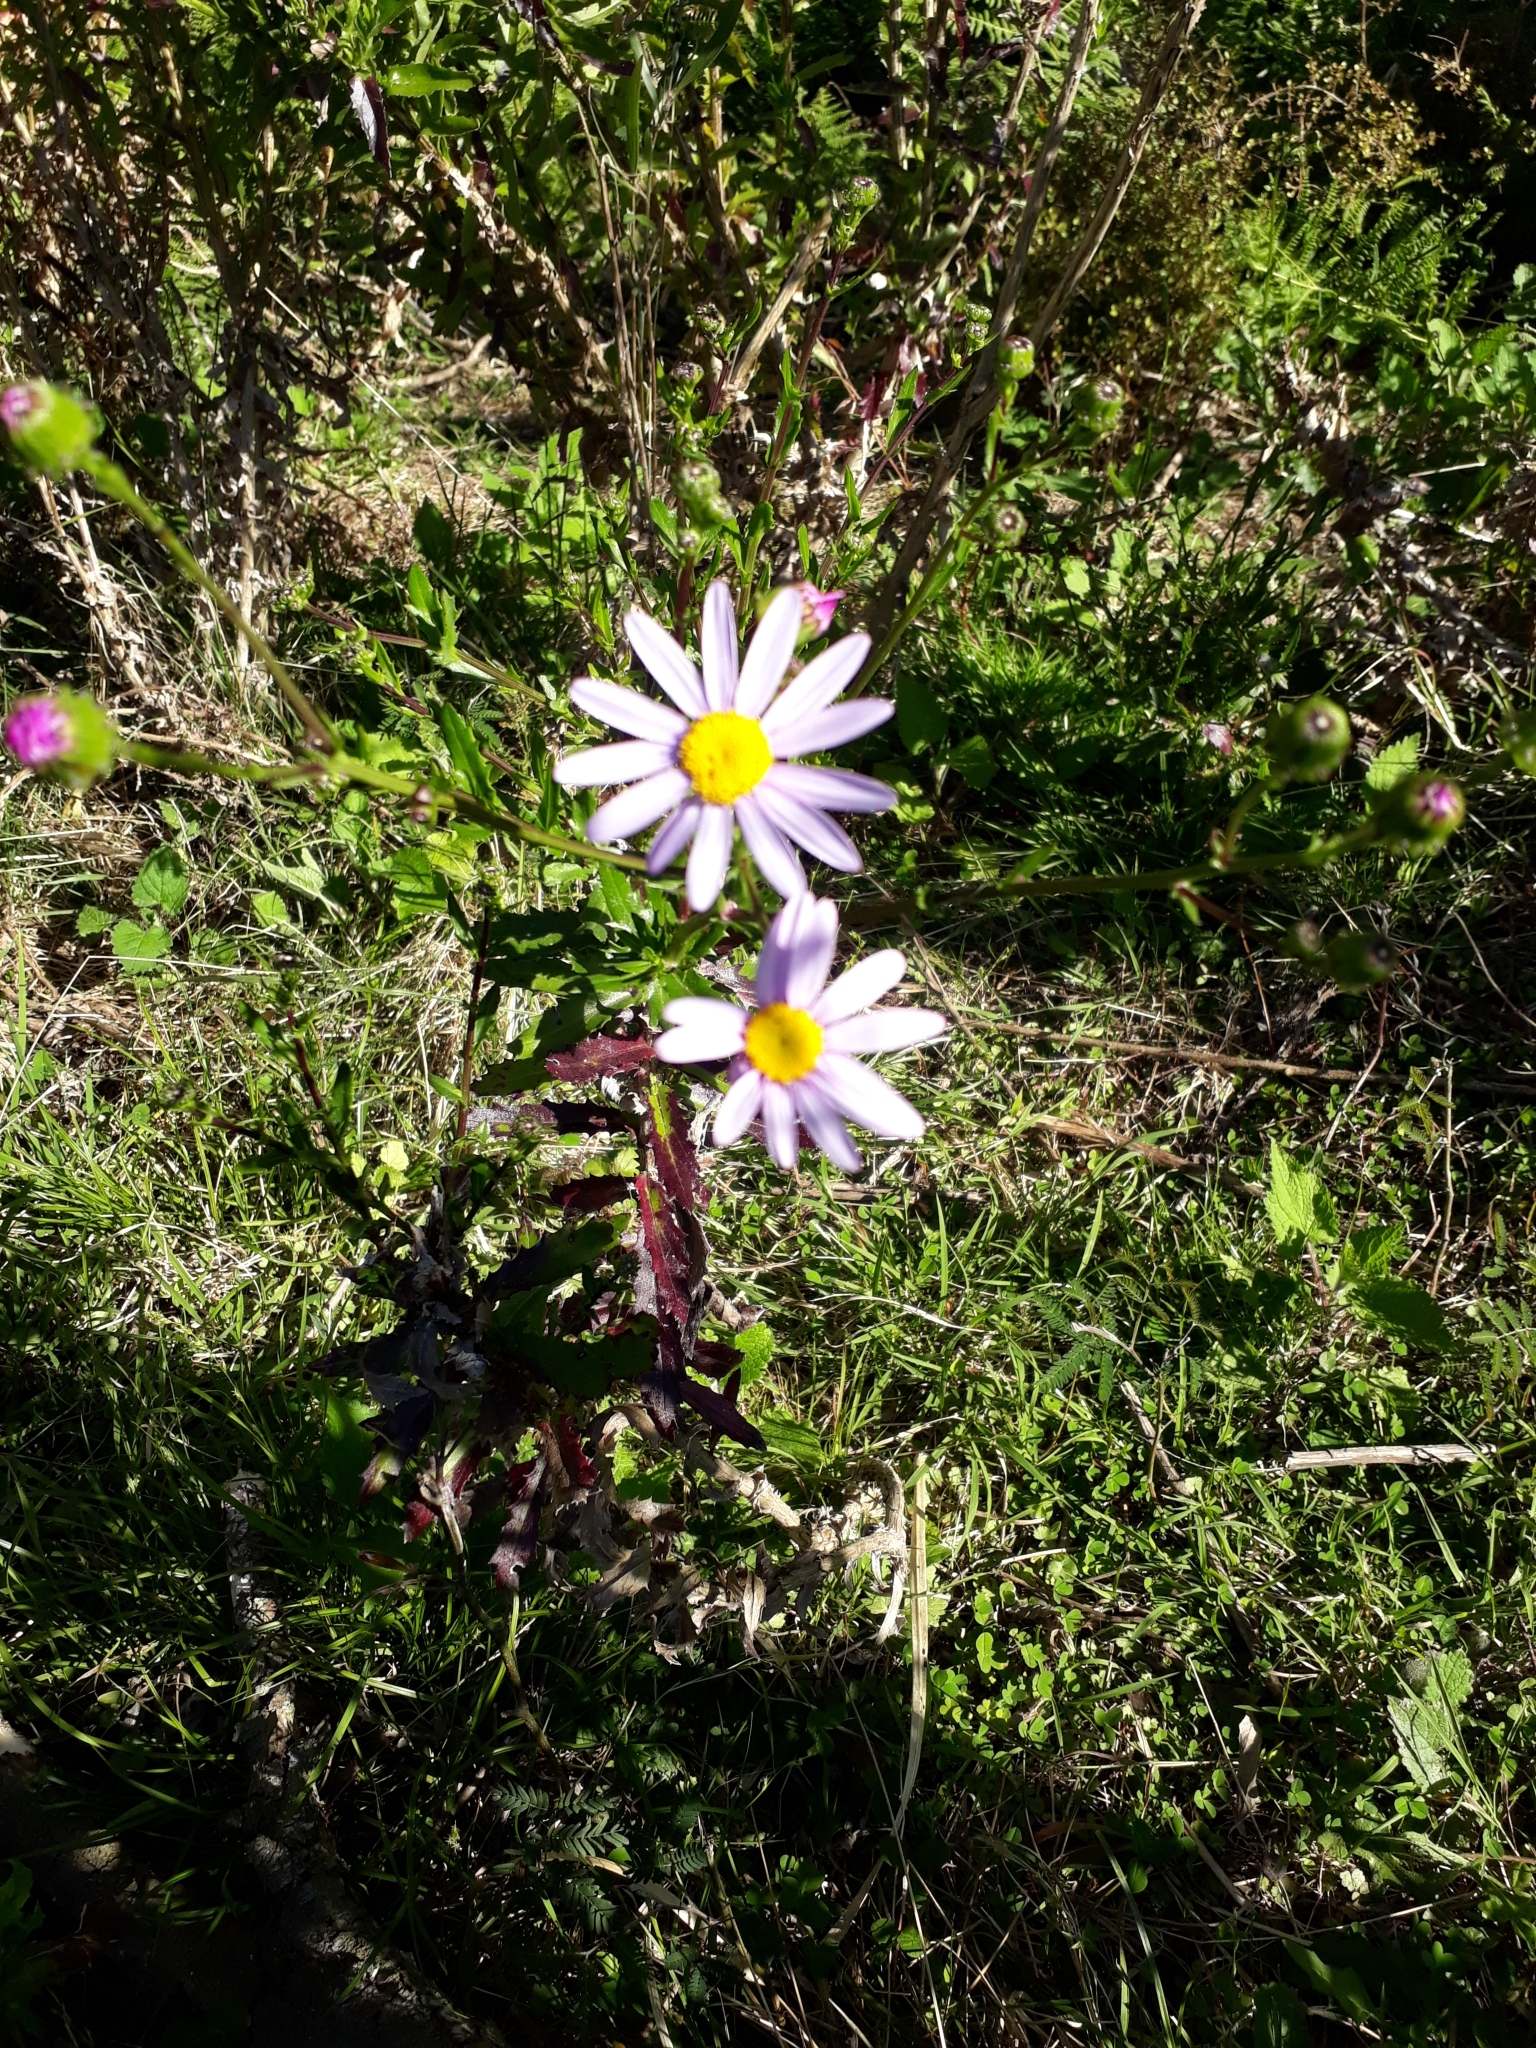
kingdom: Plantae
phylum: Tracheophyta
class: Magnoliopsida
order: Asterales
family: Asteraceae
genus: Senecio
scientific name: Senecio glastifolius
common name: Woad-leaved ragwort
